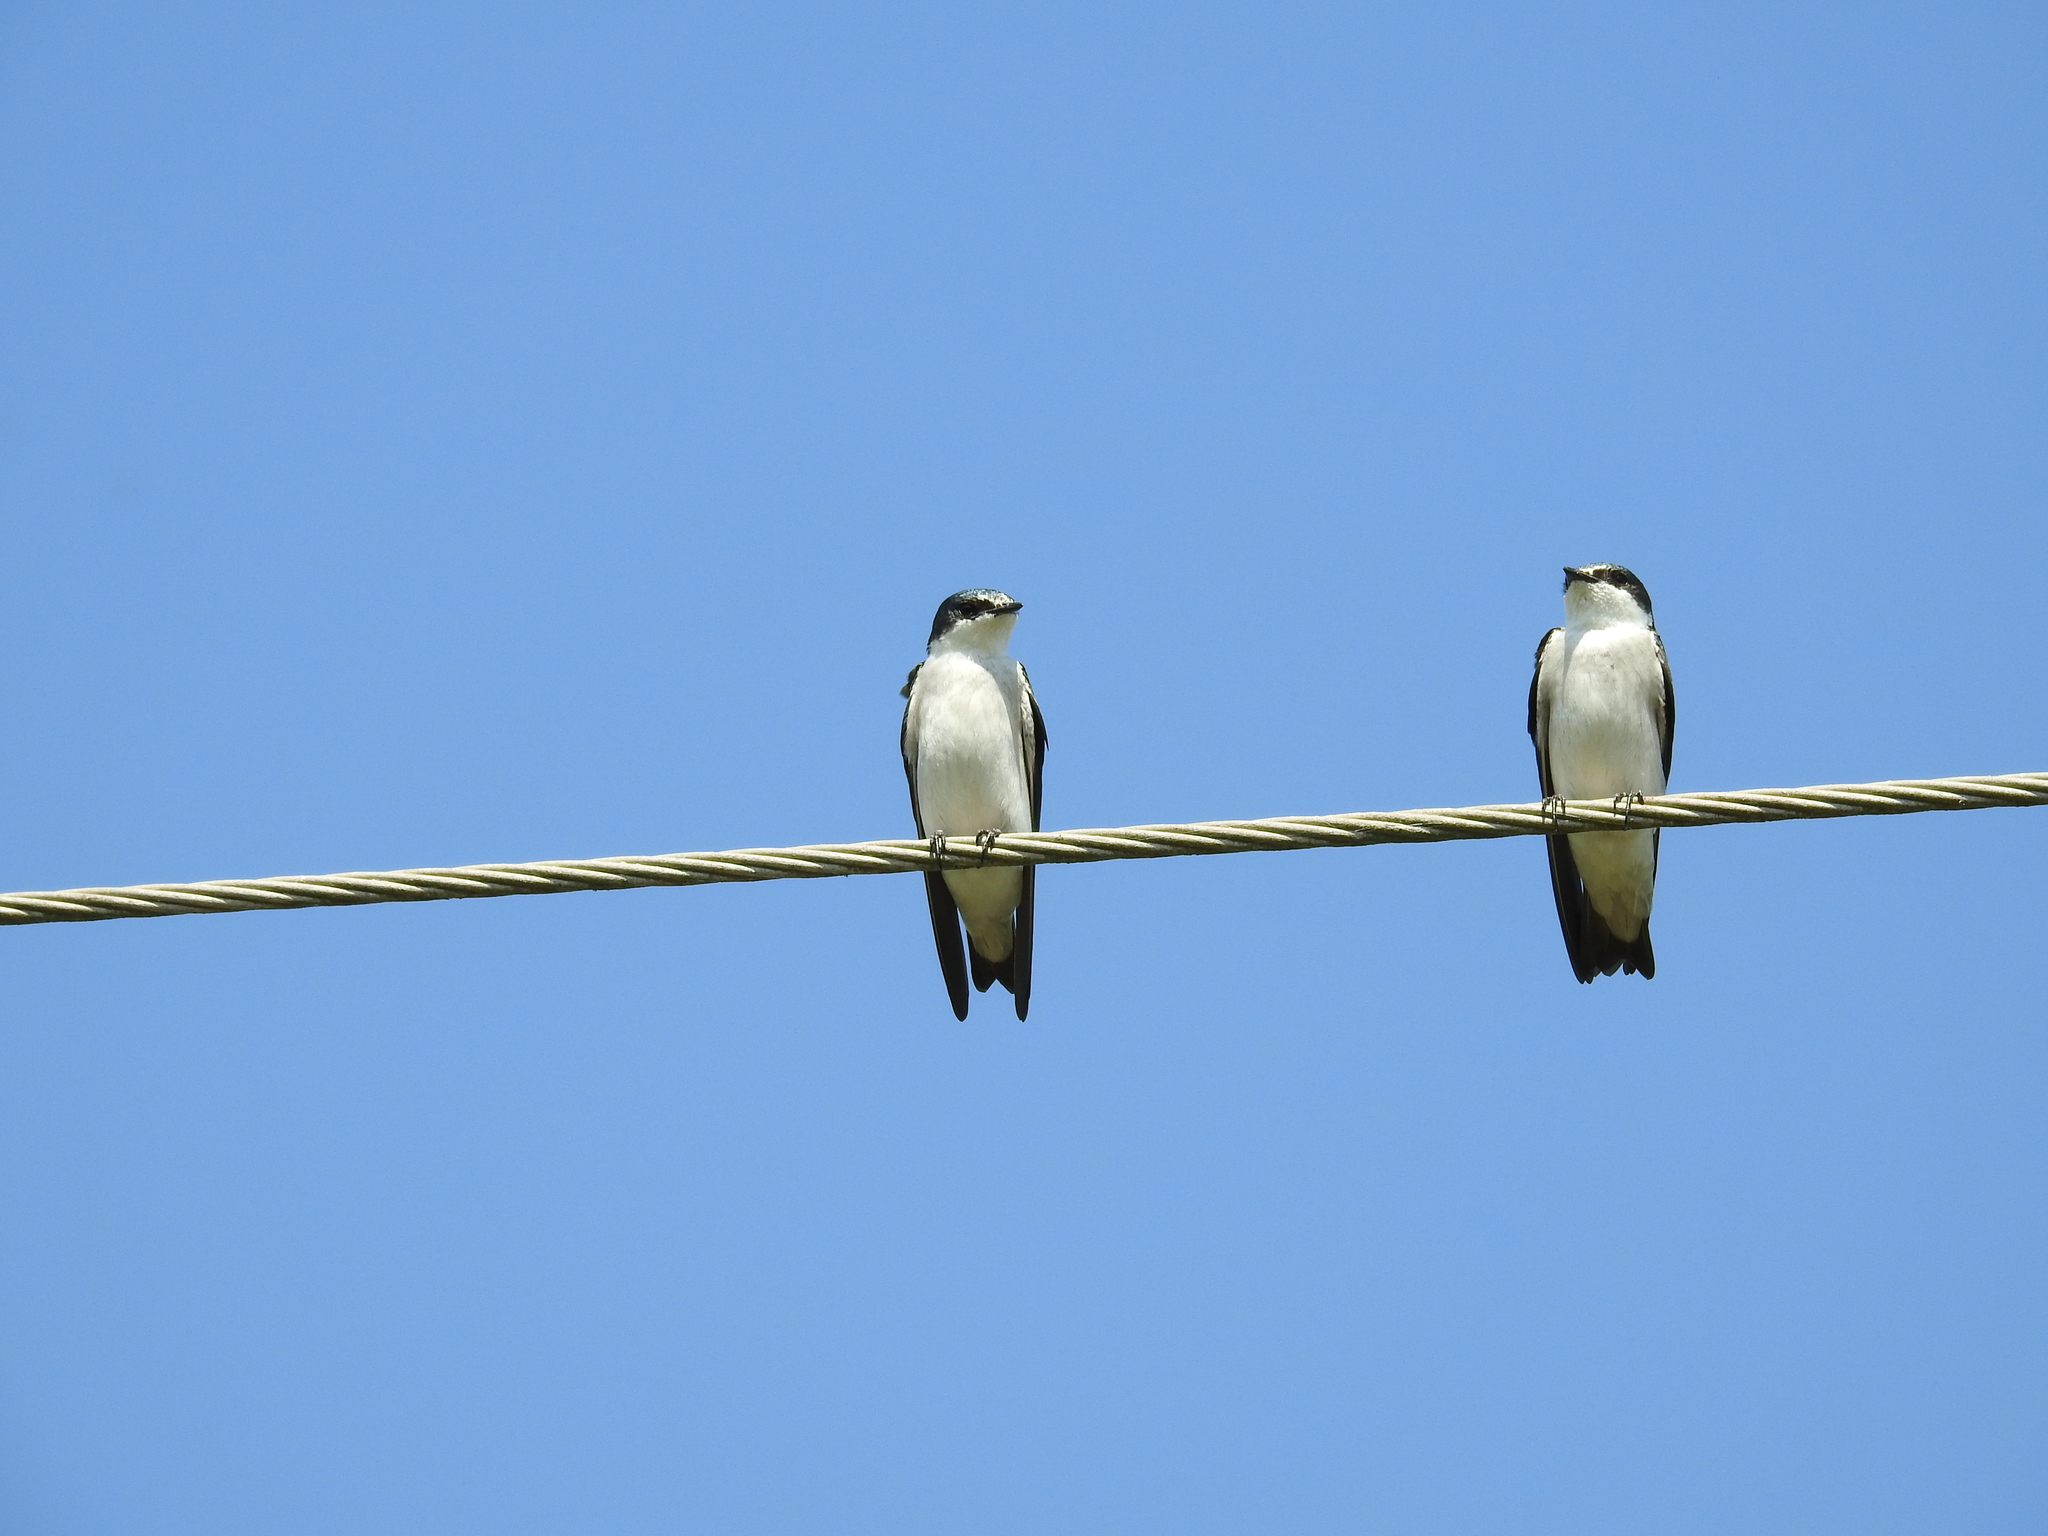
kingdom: Animalia
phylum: Chordata
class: Aves
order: Passeriformes
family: Hirundinidae
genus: Tachycineta
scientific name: Tachycineta albilinea
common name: Mangrove swallow
